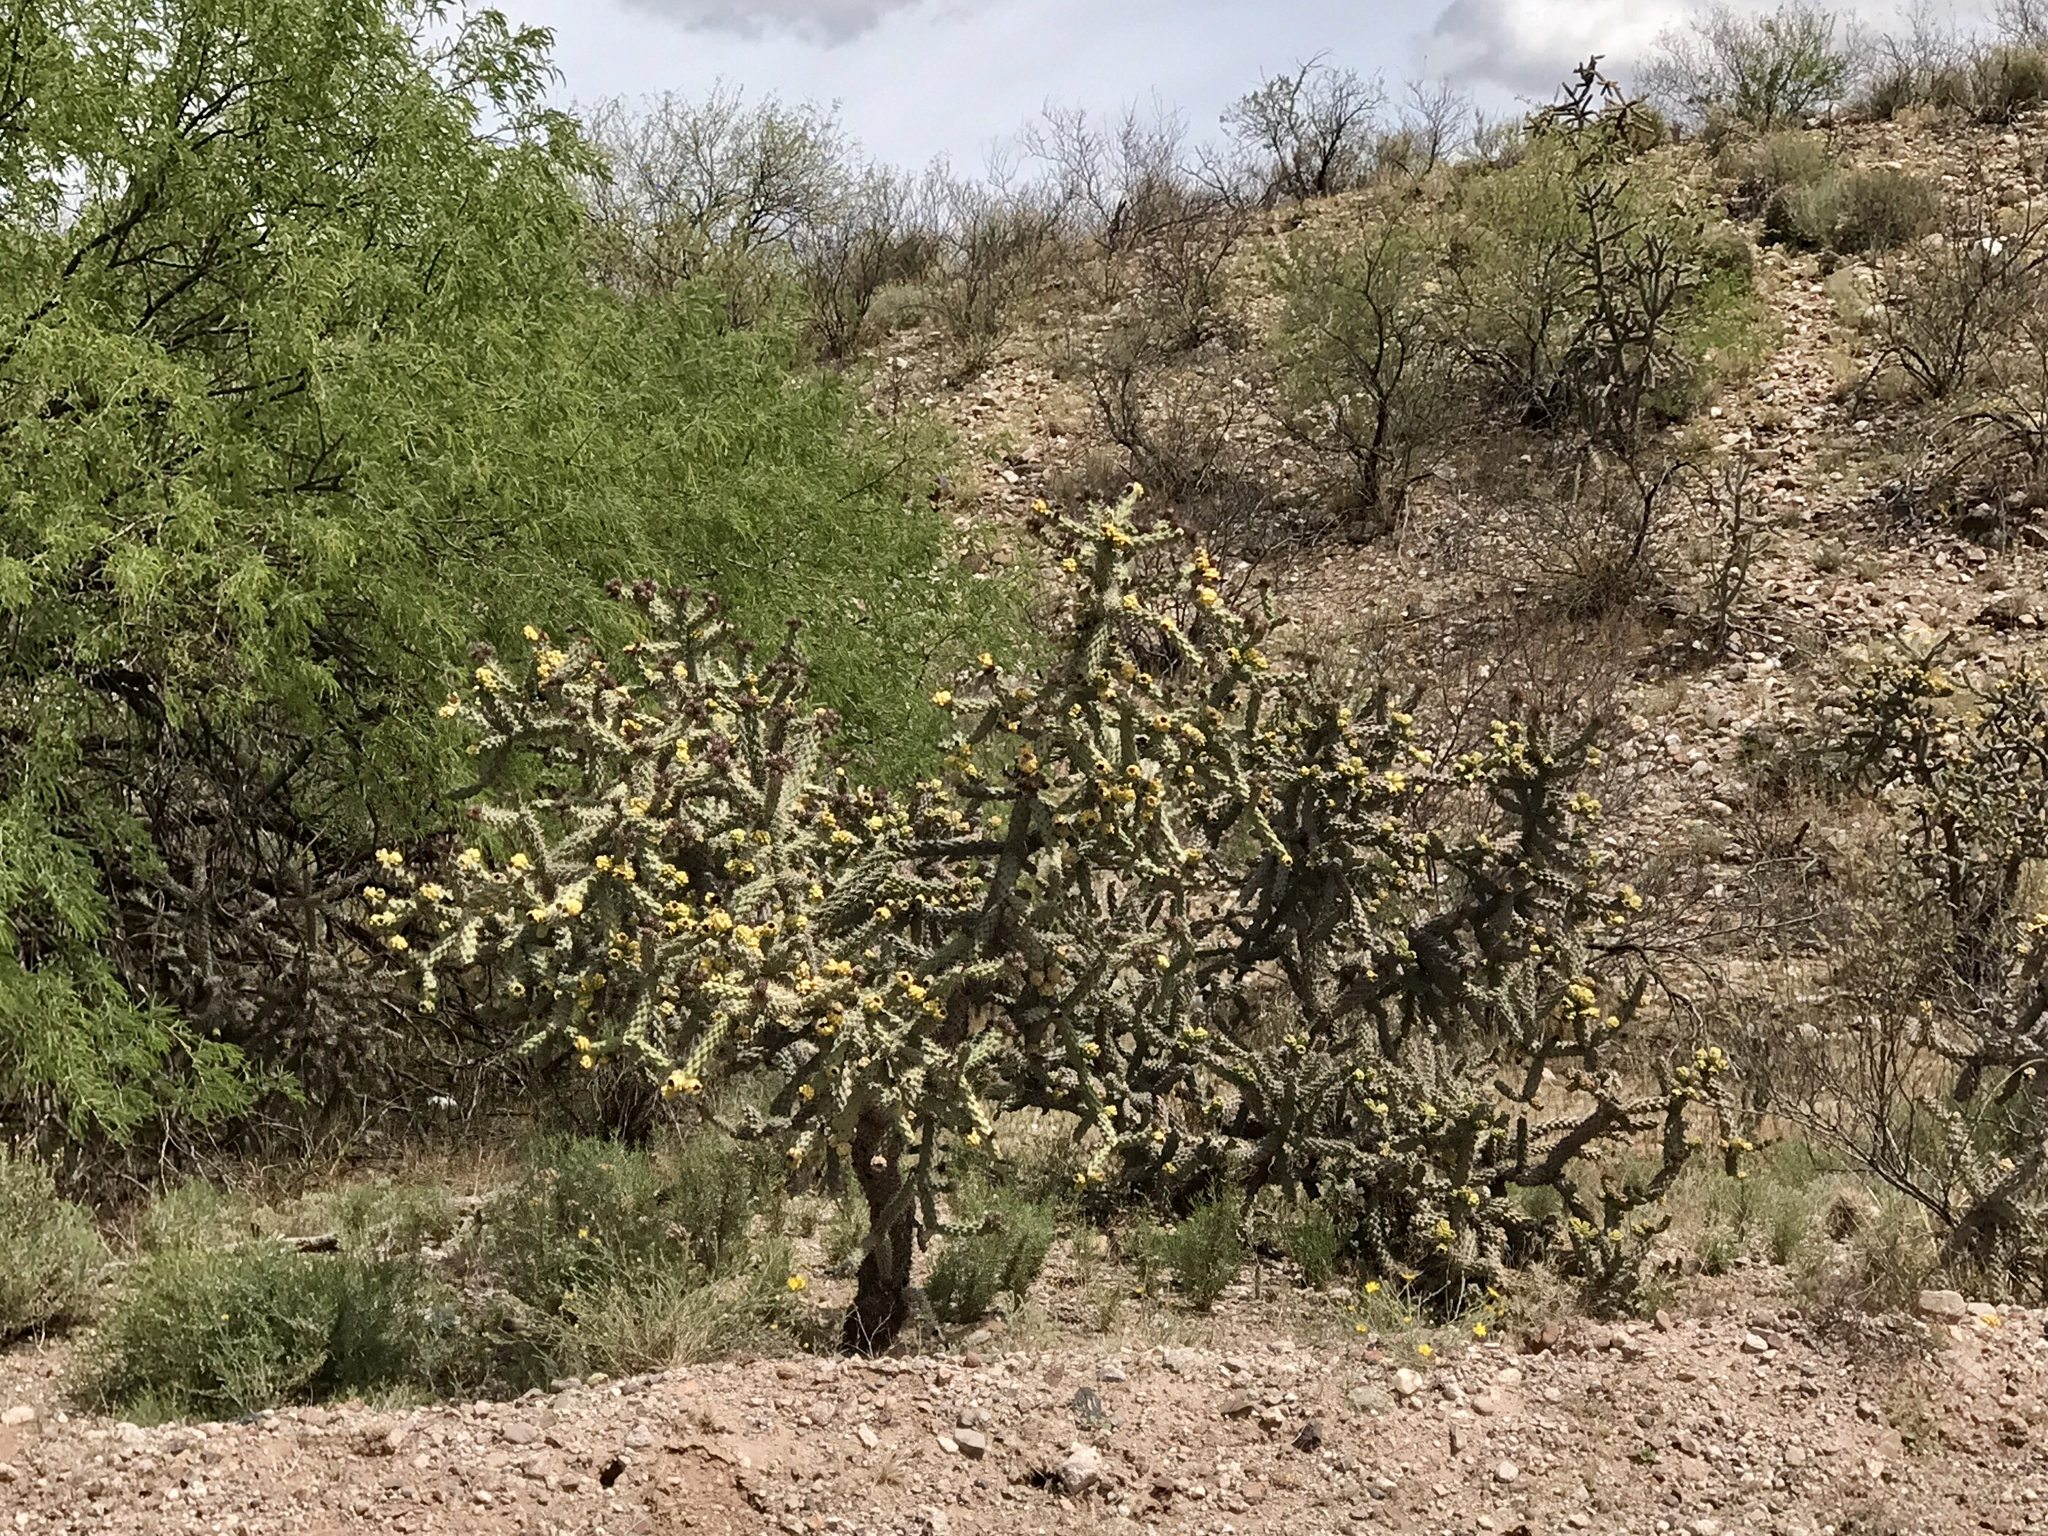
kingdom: Plantae
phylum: Tracheophyta
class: Magnoliopsida
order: Caryophyllales
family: Cactaceae
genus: Cylindropuntia
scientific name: Cylindropuntia thurberi
